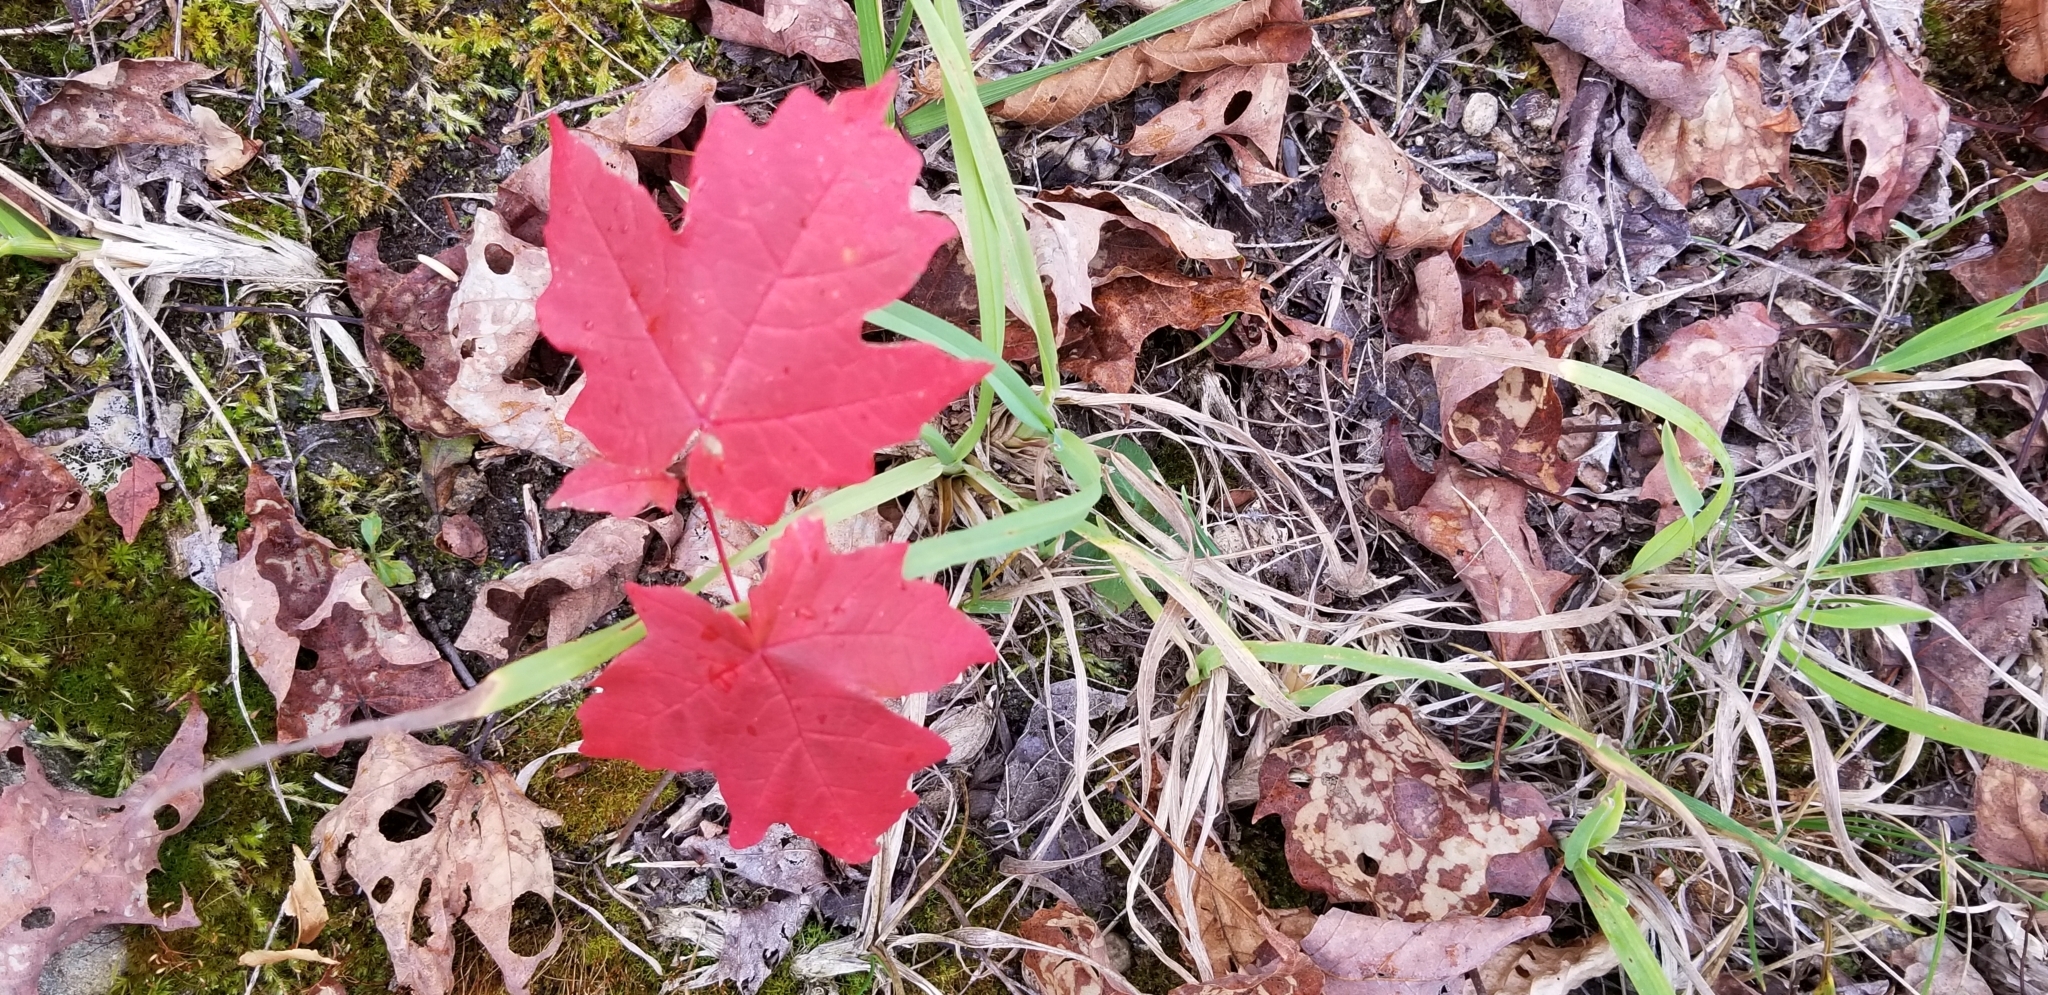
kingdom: Plantae
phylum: Tracheophyta
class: Magnoliopsida
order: Sapindales
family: Sapindaceae
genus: Acer
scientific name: Acer saccharum
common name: Sugar maple
